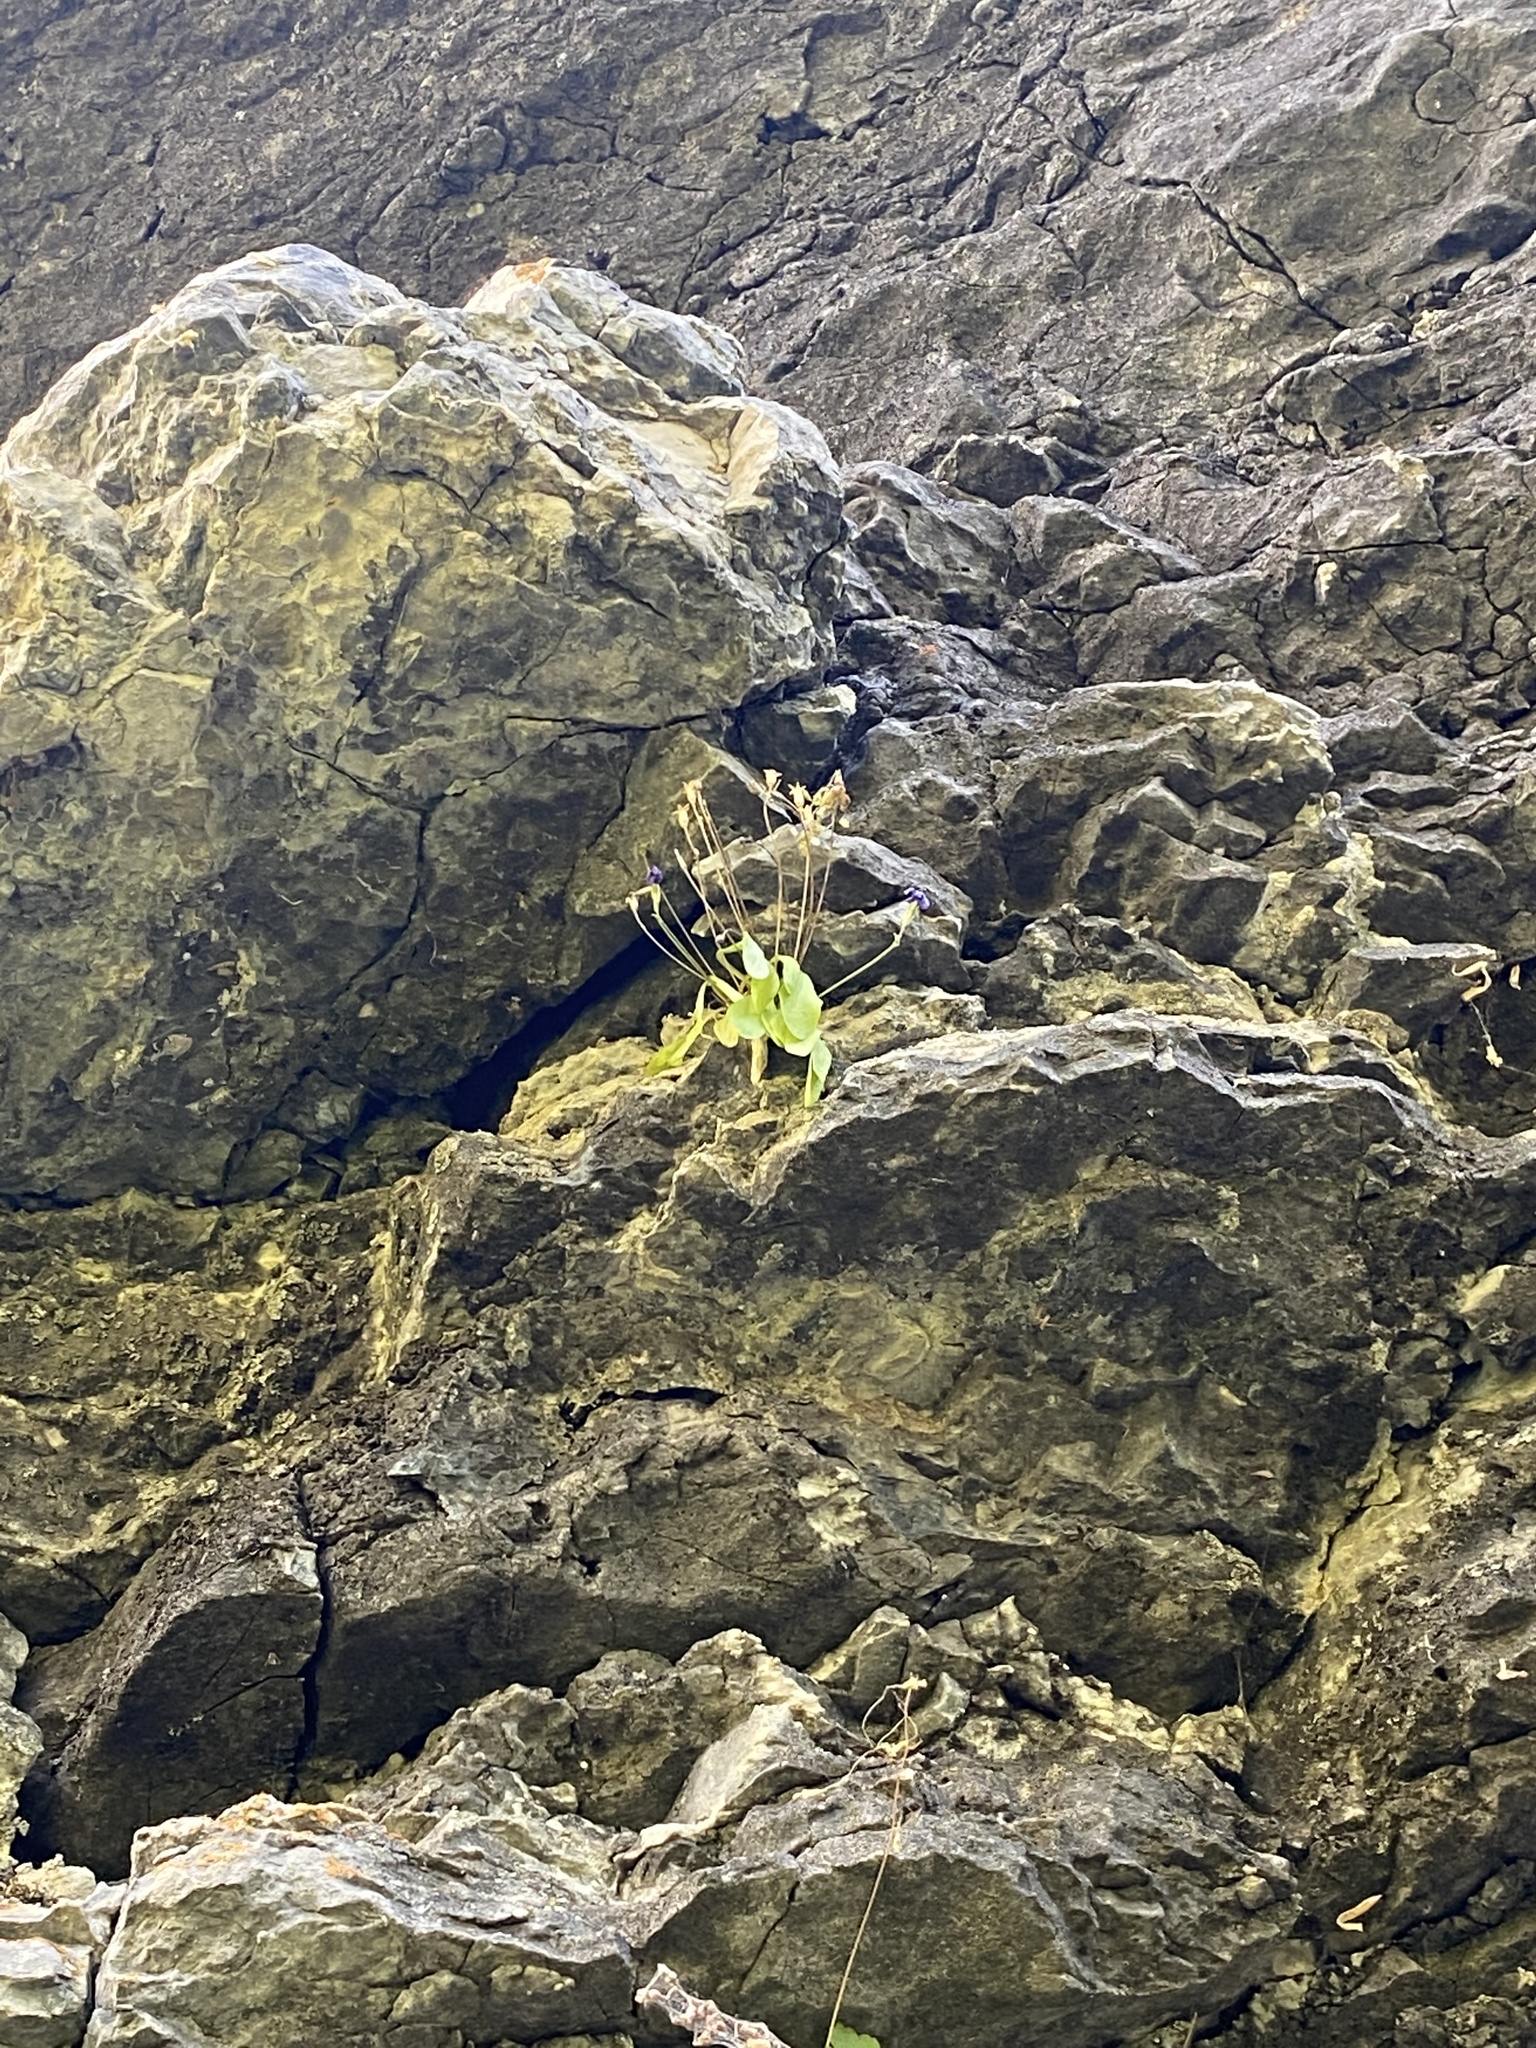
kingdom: Plantae
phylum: Tracheophyta
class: Magnoliopsida
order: Ericales
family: Primulaceae
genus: Primula
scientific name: Primula maguirei
